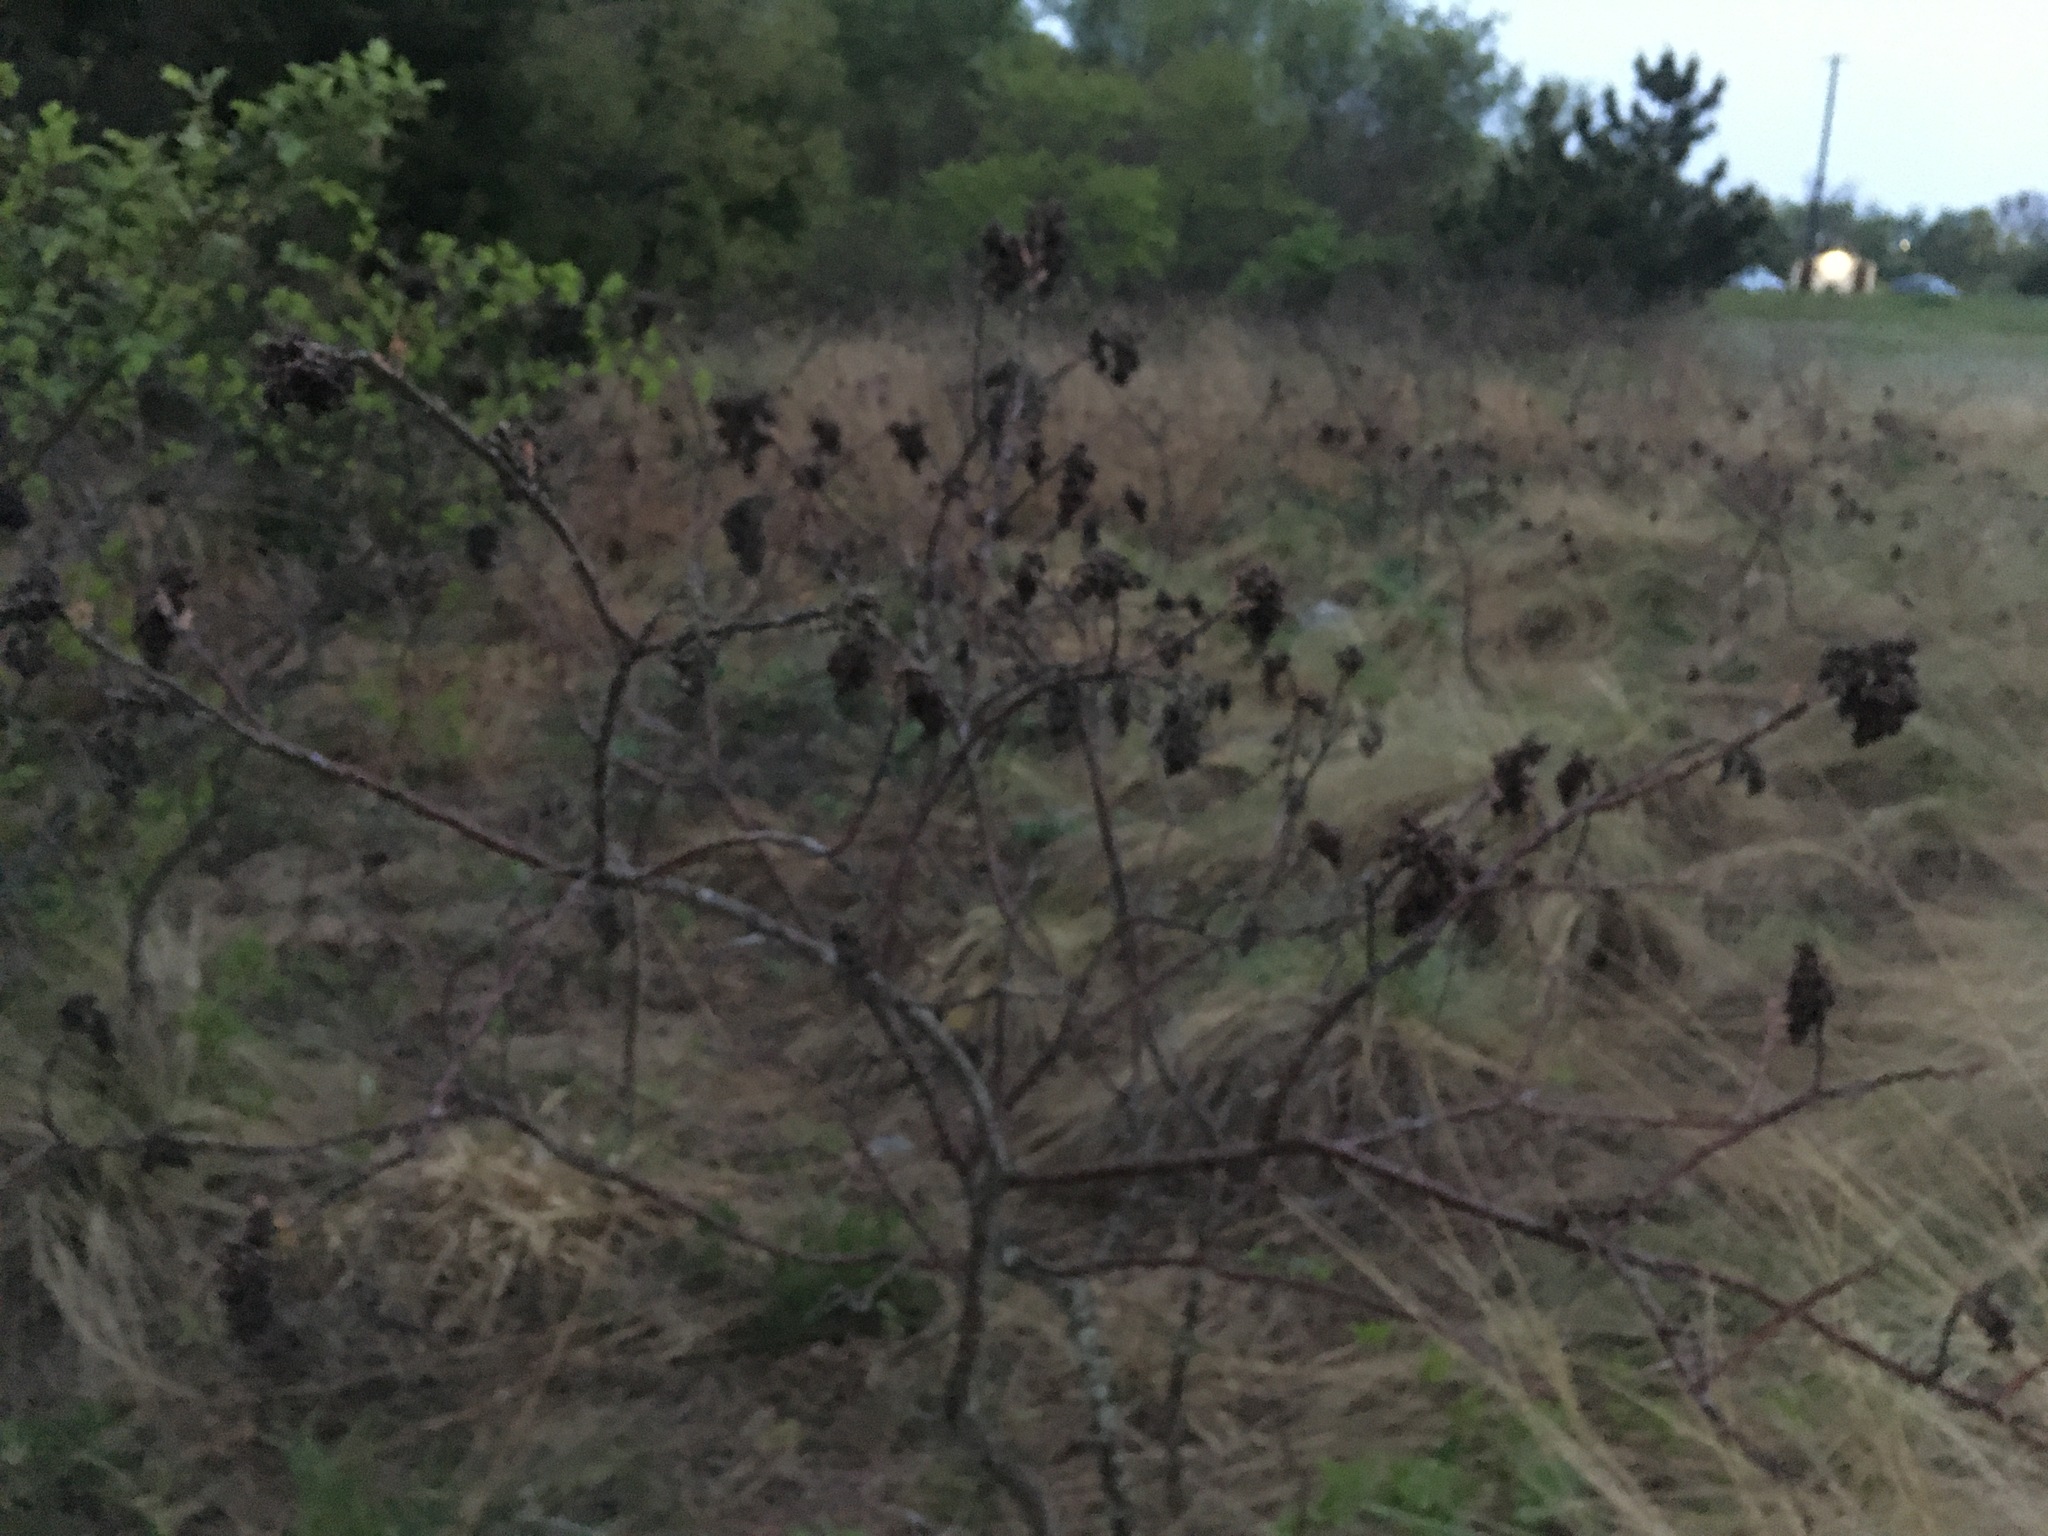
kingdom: Plantae
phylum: Tracheophyta
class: Magnoliopsida
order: Sapindales
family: Anacardiaceae
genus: Rhus
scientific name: Rhus copallina
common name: Shining sumac
